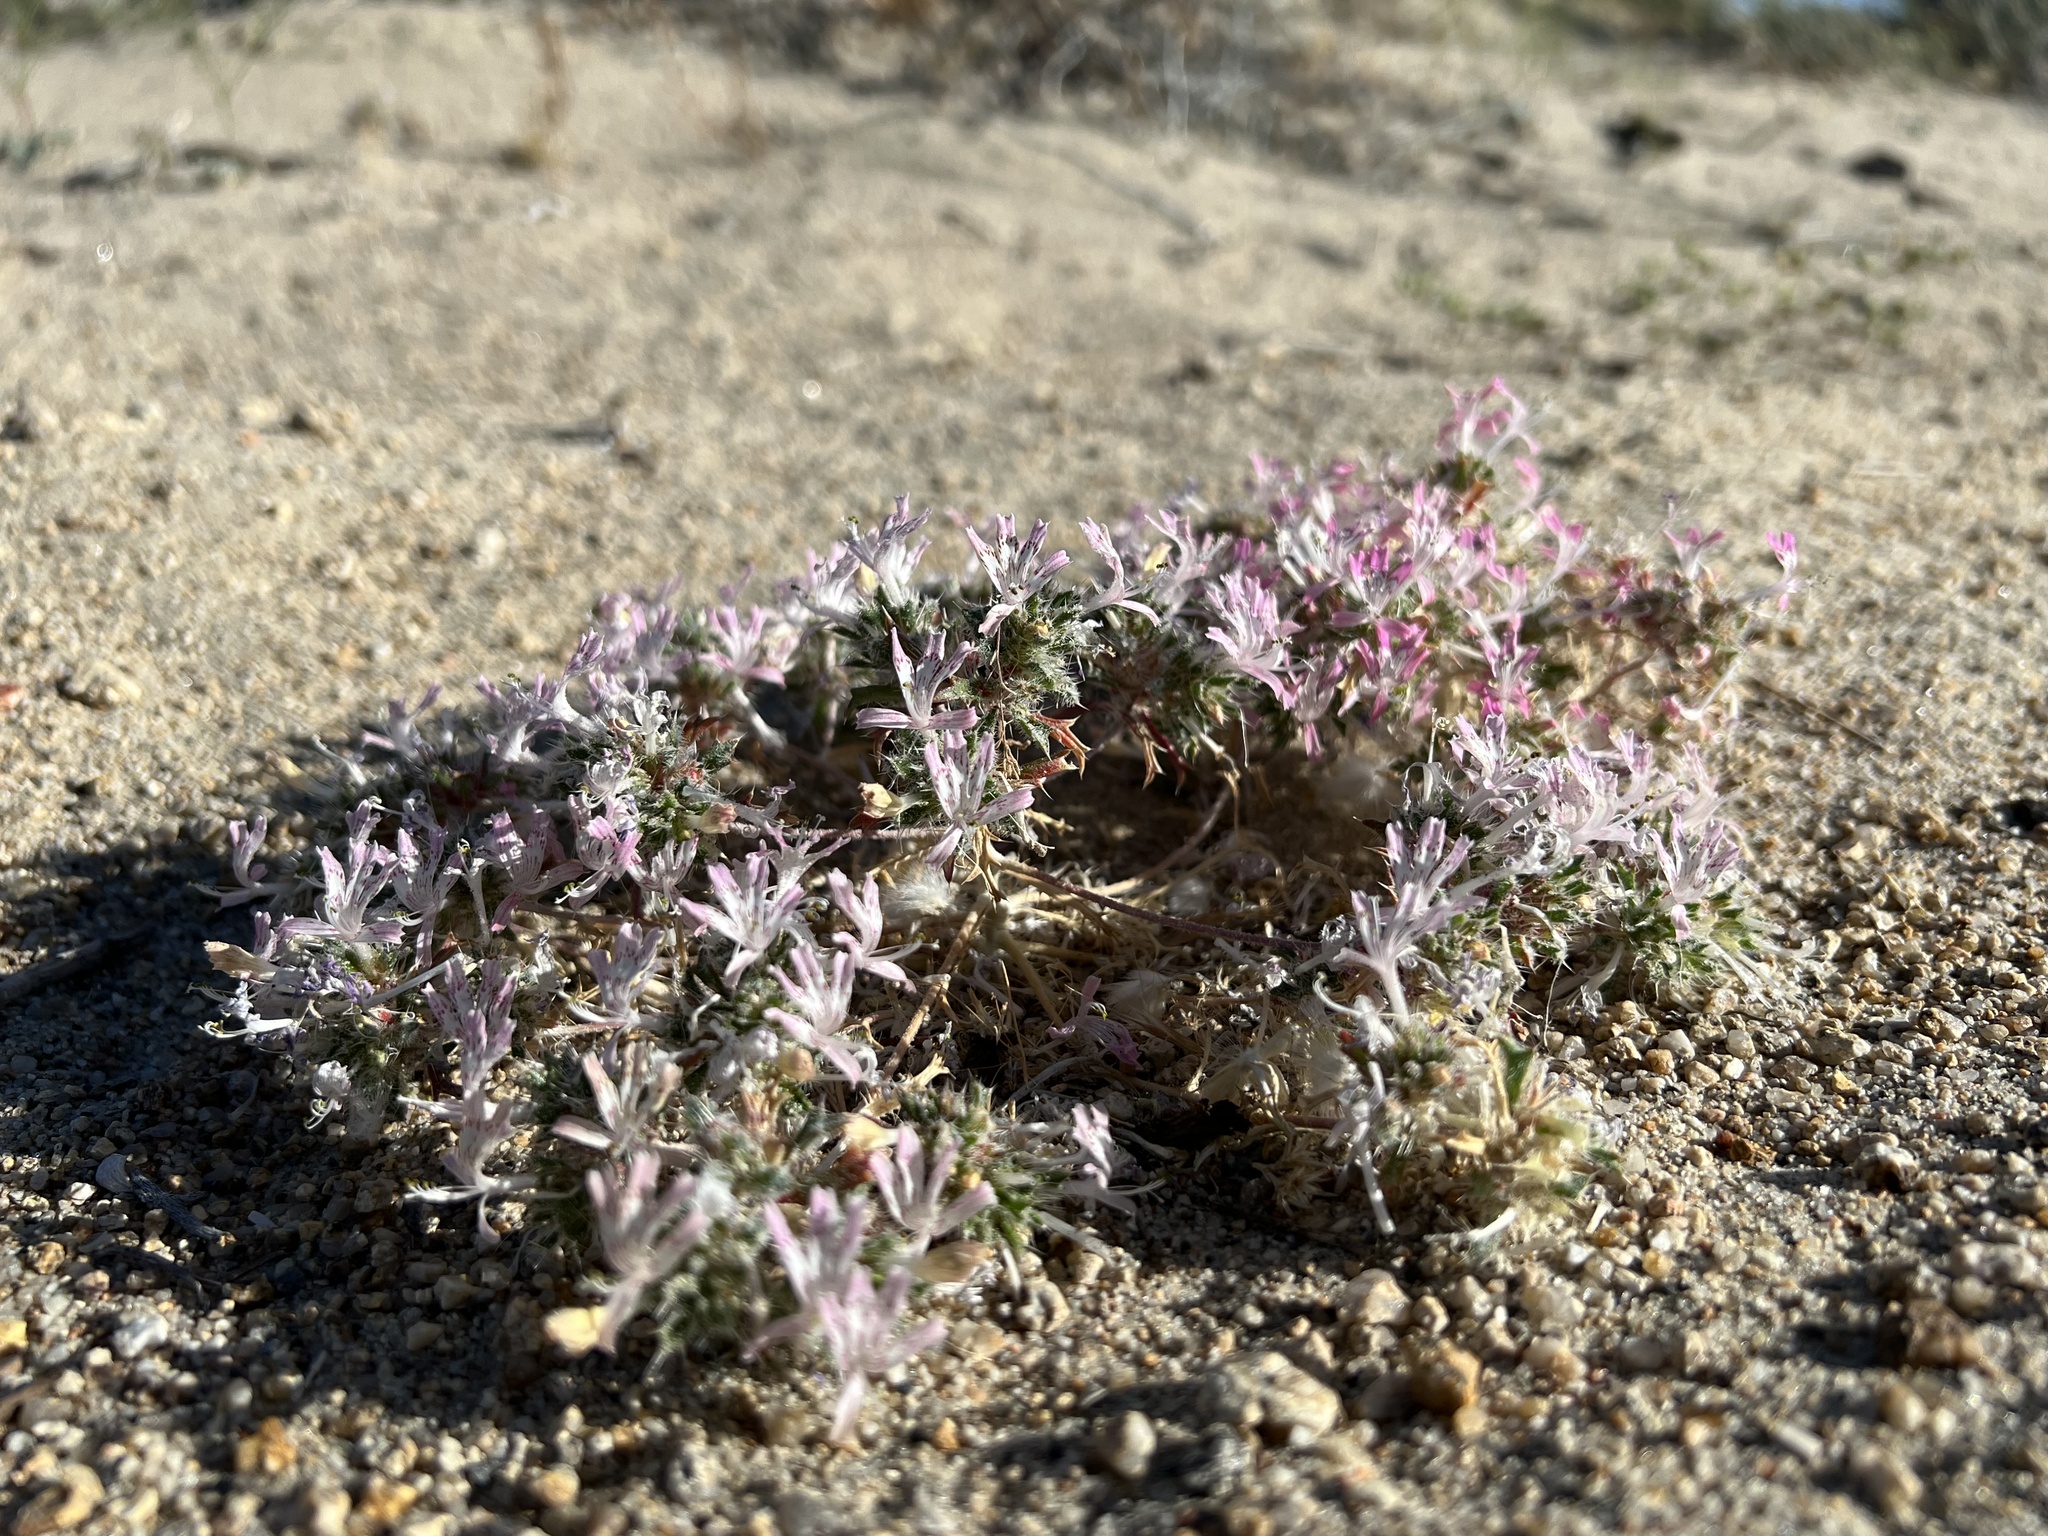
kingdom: Plantae
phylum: Tracheophyta
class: Magnoliopsida
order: Ericales
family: Polemoniaceae
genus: Loeseliastrum
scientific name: Loeseliastrum matthewsii
